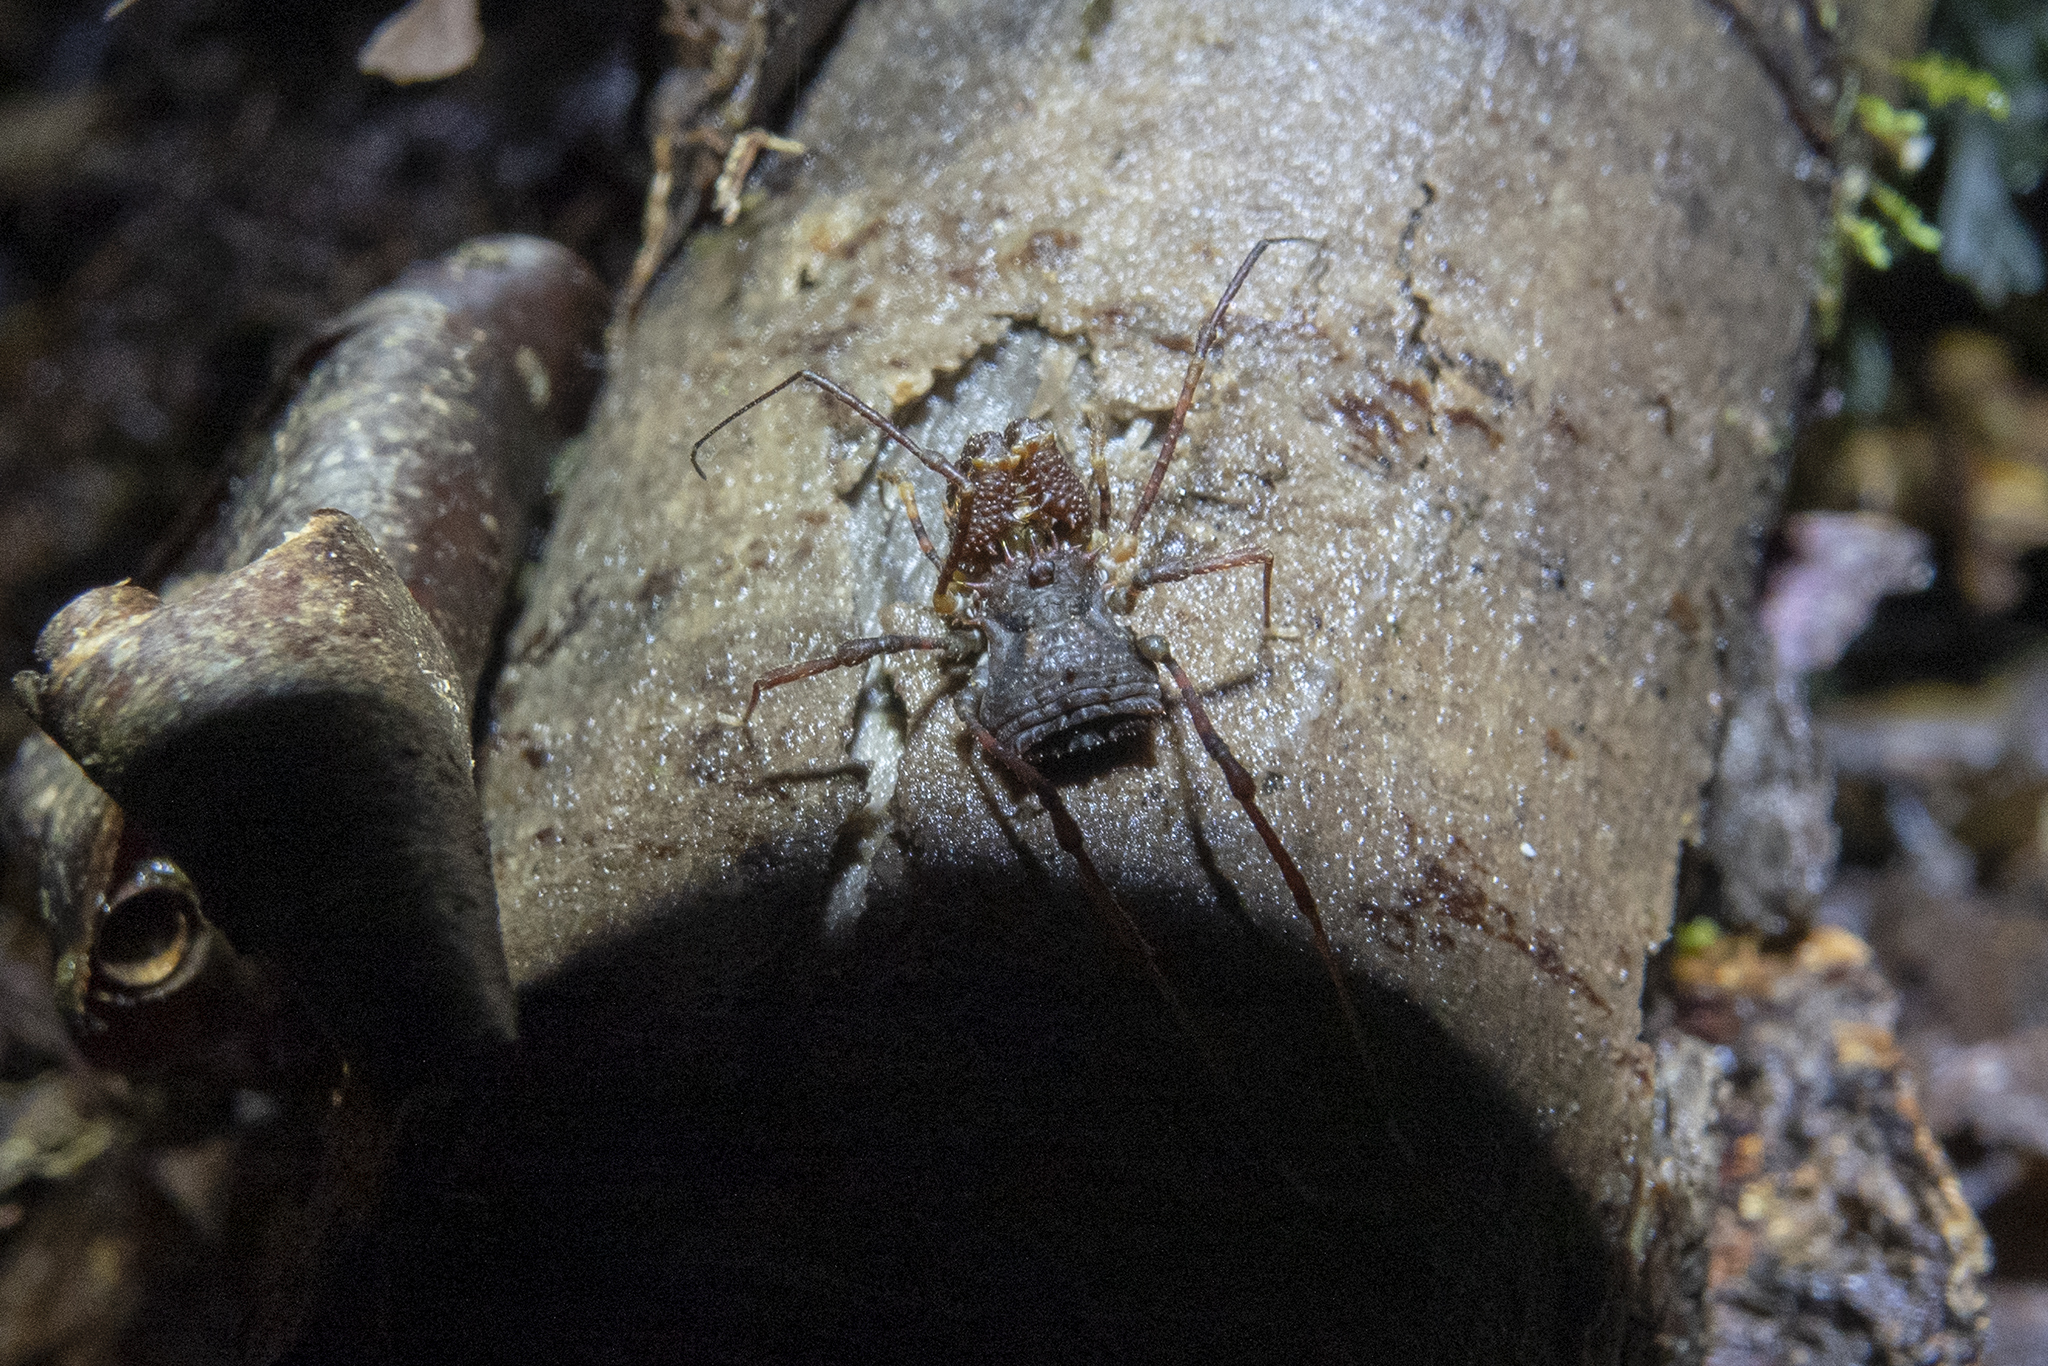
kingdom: Animalia
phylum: Arthropoda
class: Arachnida
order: Opiliones
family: Triaenonychidae
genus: Karamea
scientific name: Karamea lobata
